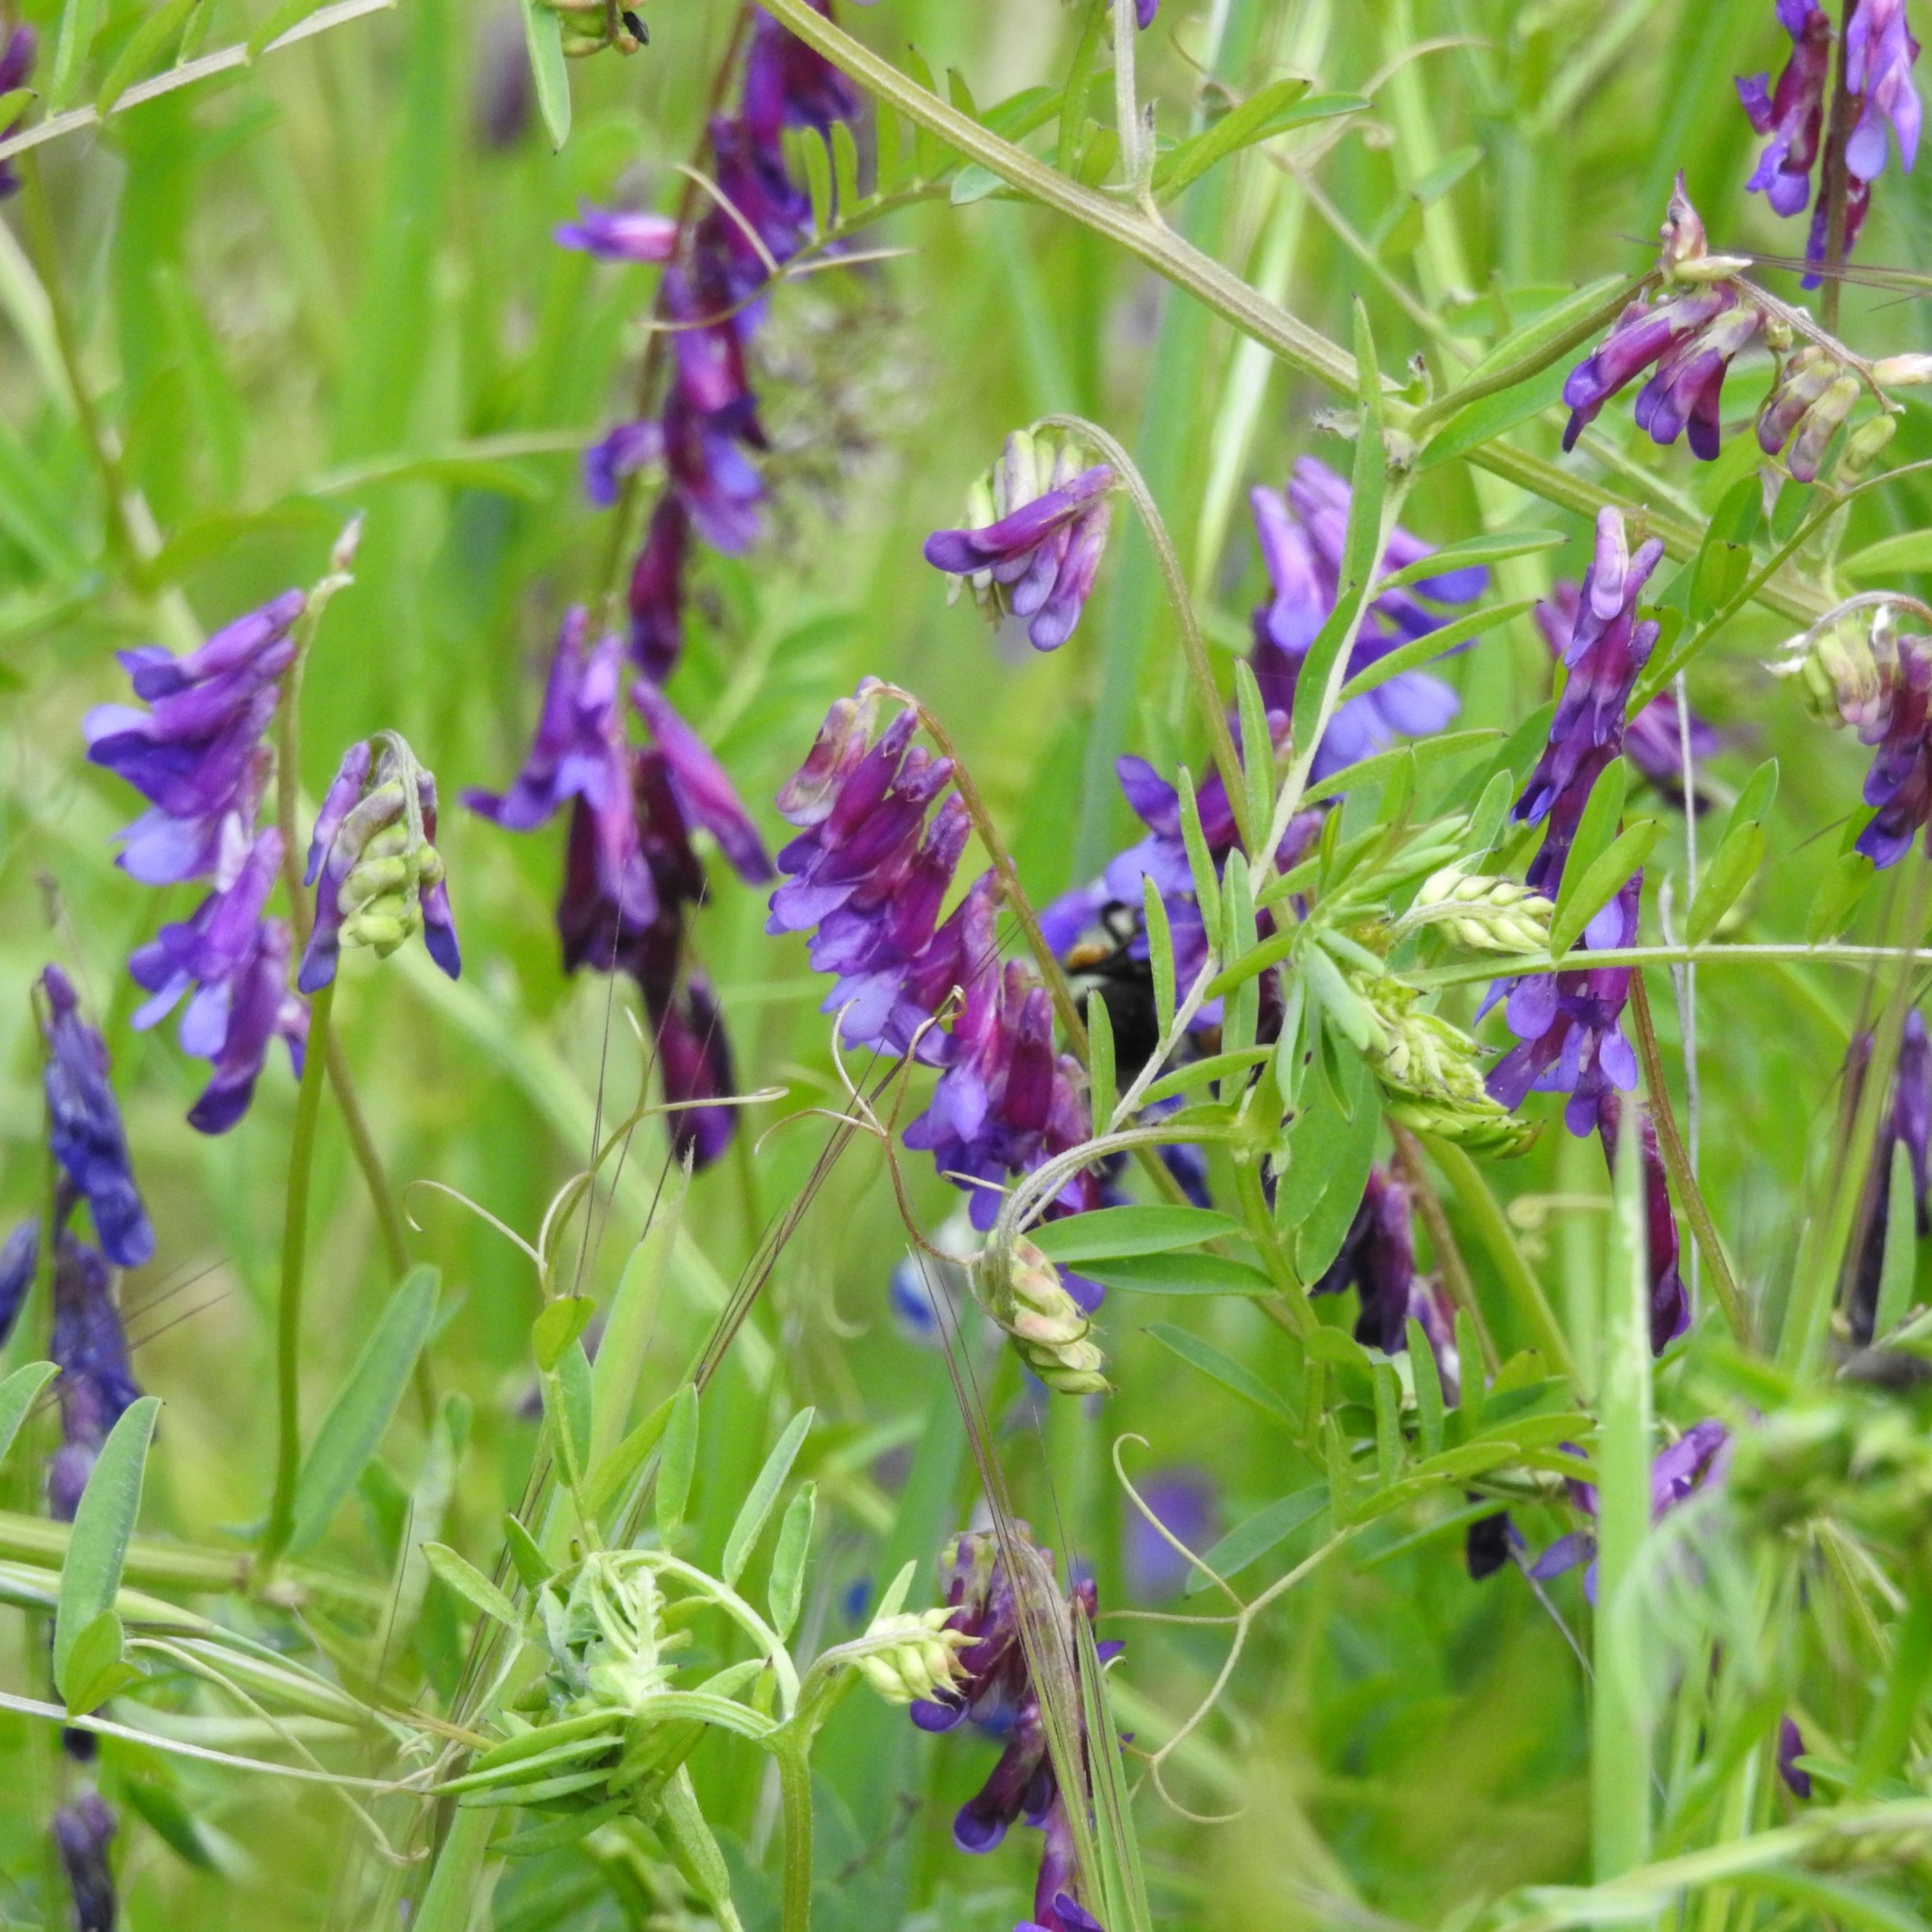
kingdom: Plantae
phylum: Tracheophyta
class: Magnoliopsida
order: Fabales
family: Fabaceae
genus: Vicia
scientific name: Vicia villosa
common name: Fodder vetch
